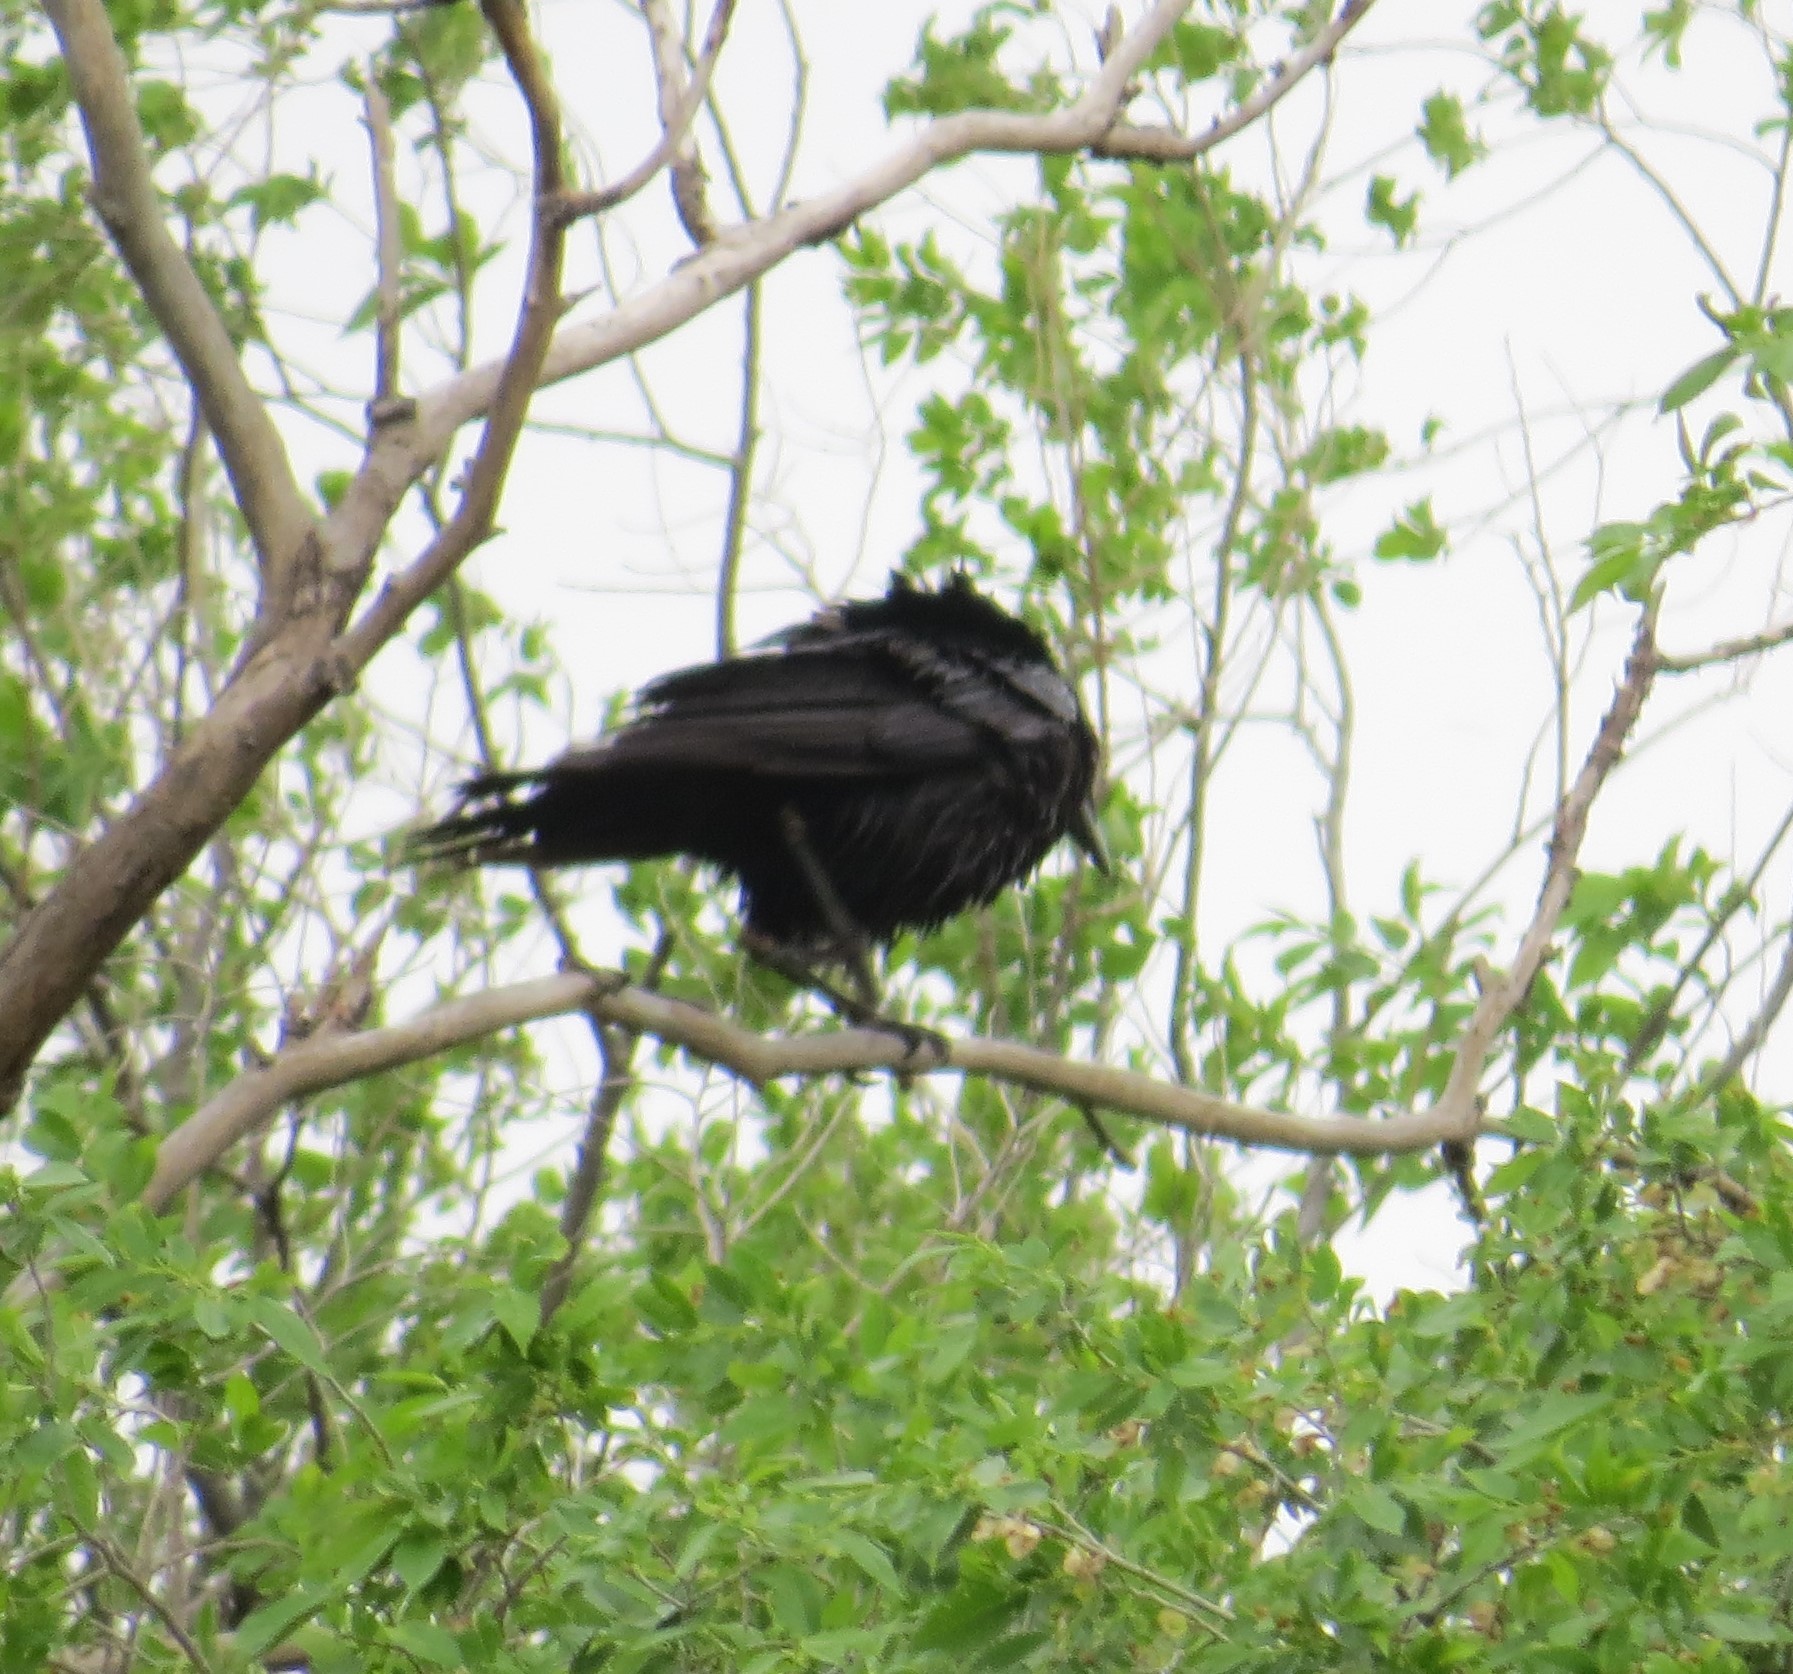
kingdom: Animalia
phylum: Chordata
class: Aves
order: Passeriformes
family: Corvidae
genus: Corvus
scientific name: Corvus brachyrhynchos
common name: American crow
